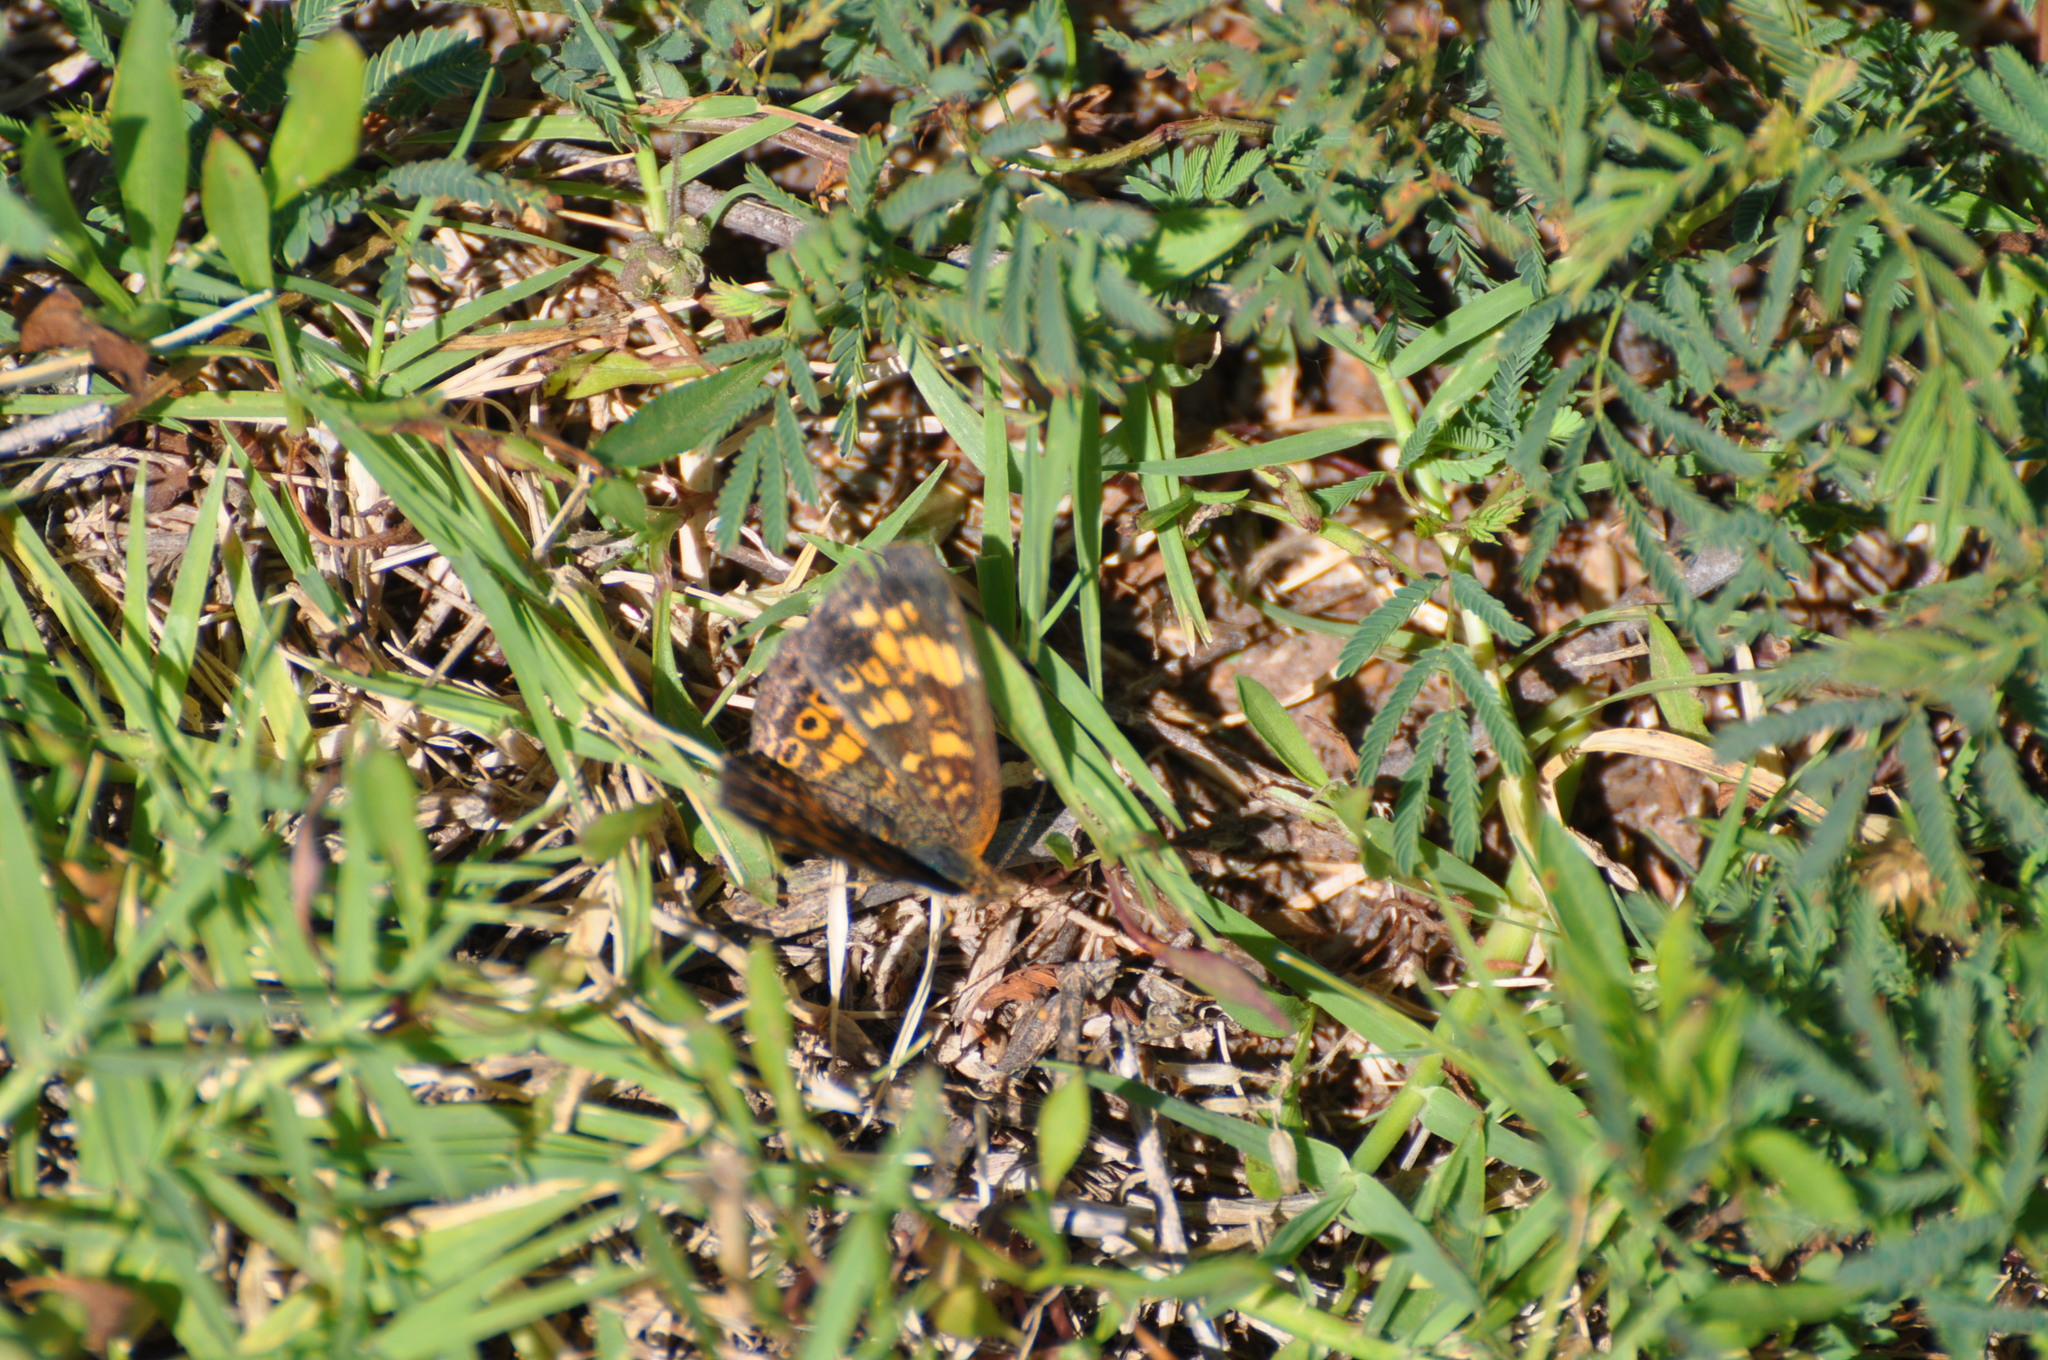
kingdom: Animalia
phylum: Arthropoda
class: Insecta
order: Lepidoptera
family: Nymphalidae
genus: Phyciodes
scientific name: Phyciodes tharos
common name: Pearl crescent
